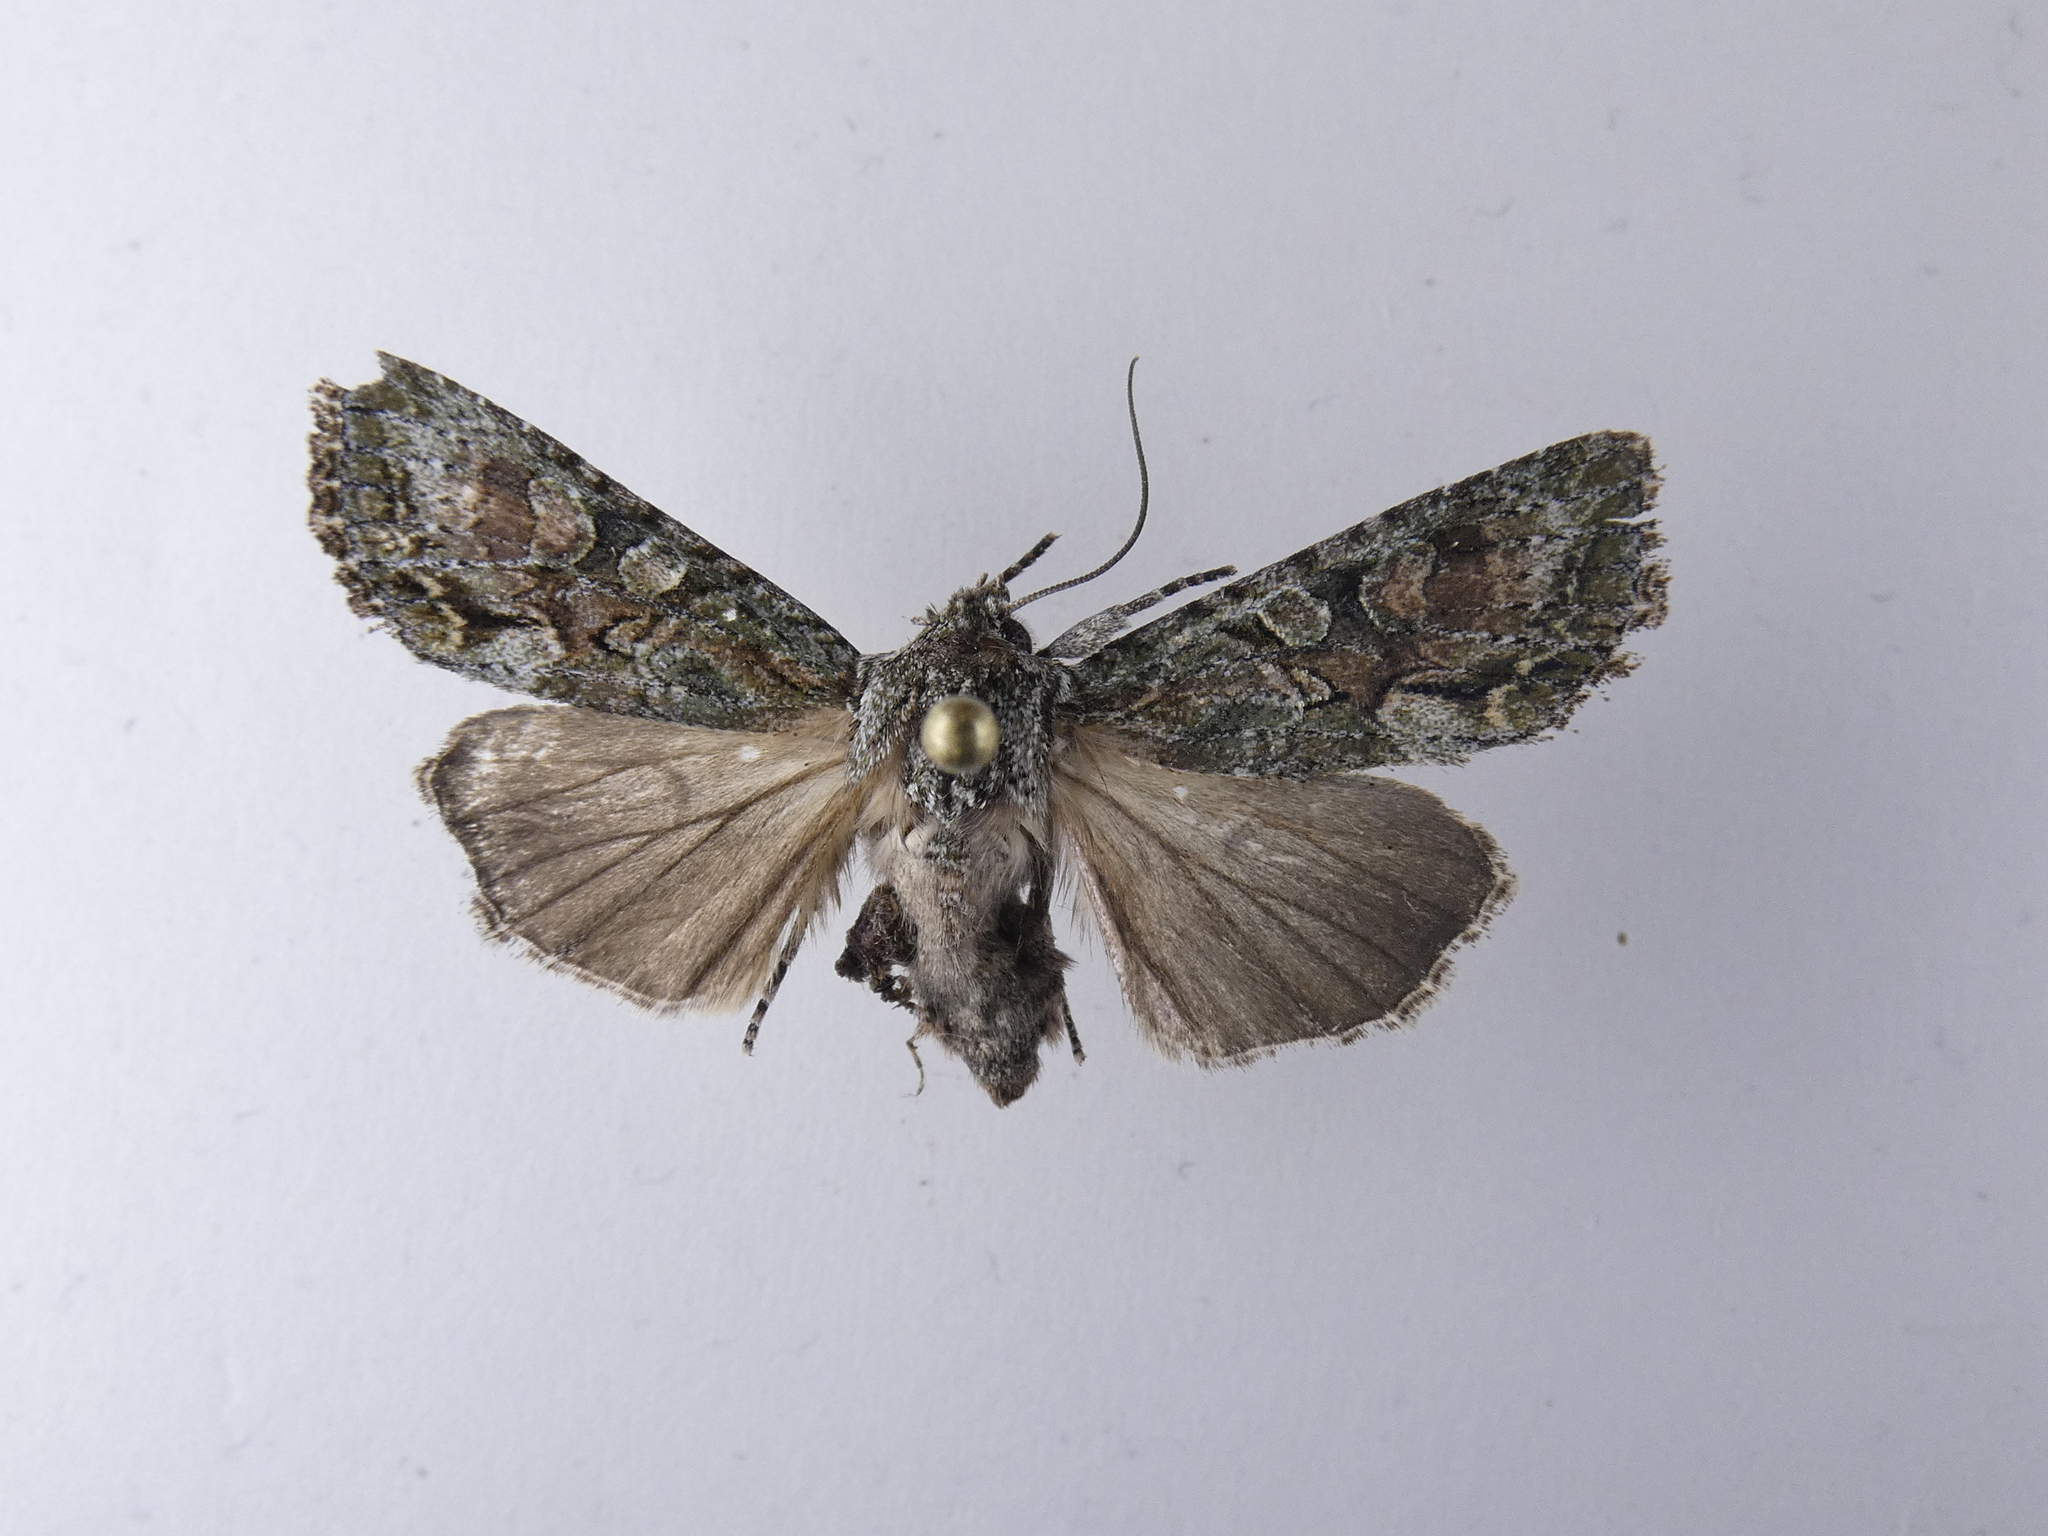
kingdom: Animalia
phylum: Arthropoda
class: Insecta
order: Lepidoptera
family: Noctuidae
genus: Ichneutica
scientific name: Ichneutica mutans
